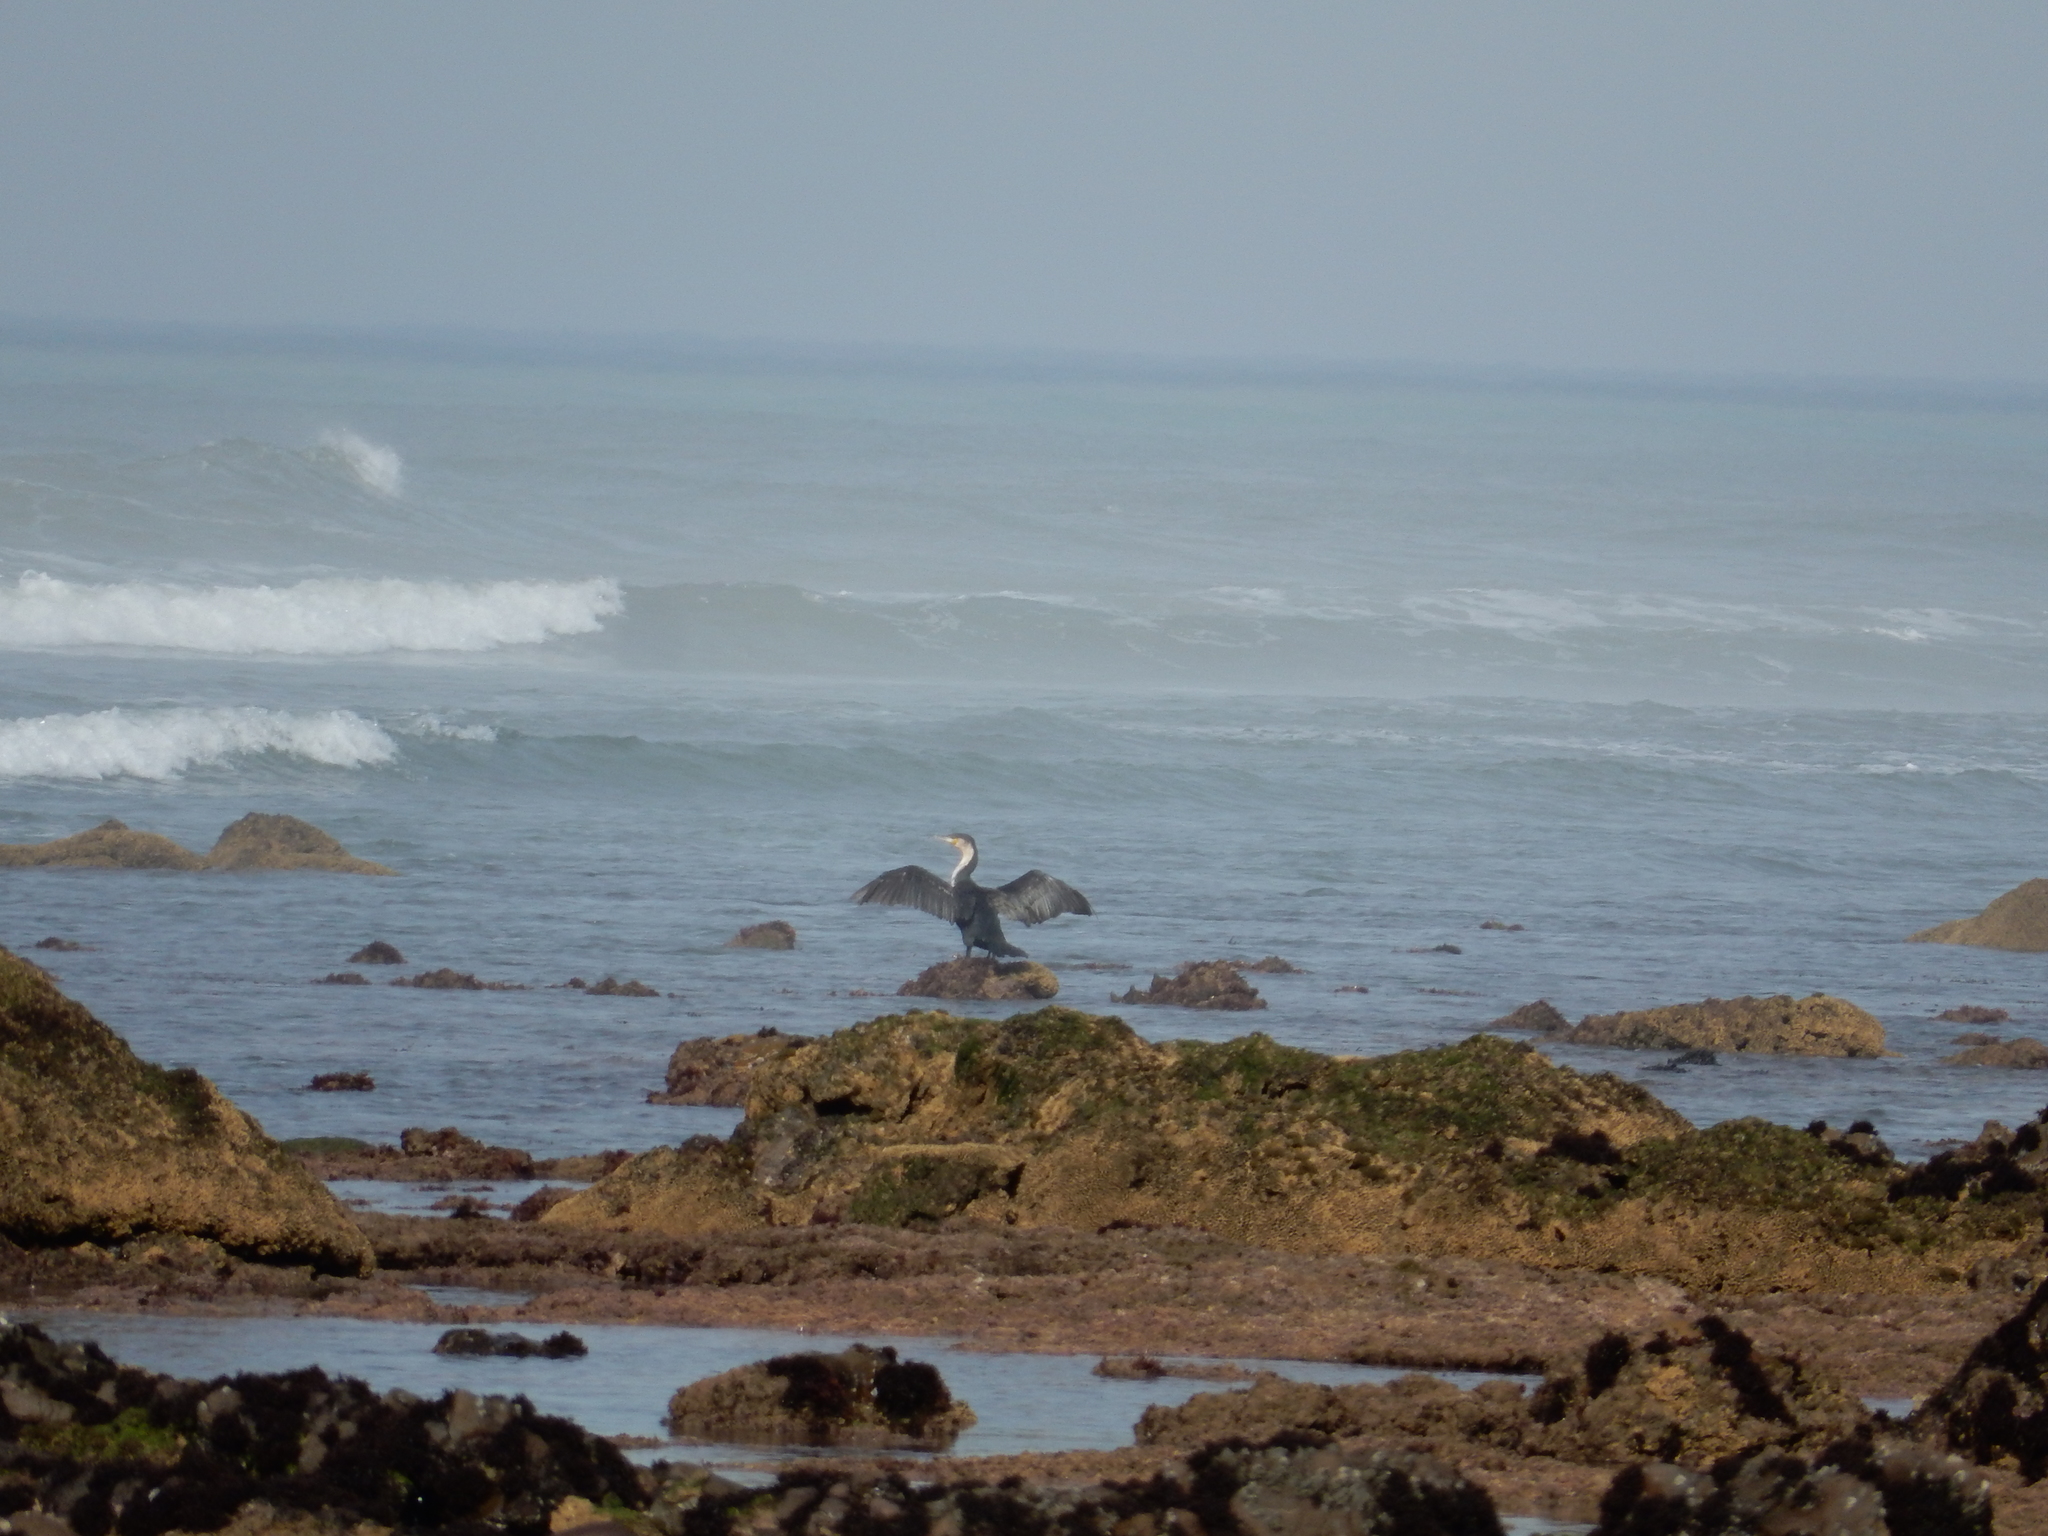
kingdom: Animalia
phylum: Chordata
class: Aves
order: Suliformes
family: Phalacrocoracidae
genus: Phalacrocorax
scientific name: Phalacrocorax carbo
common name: Great cormorant
